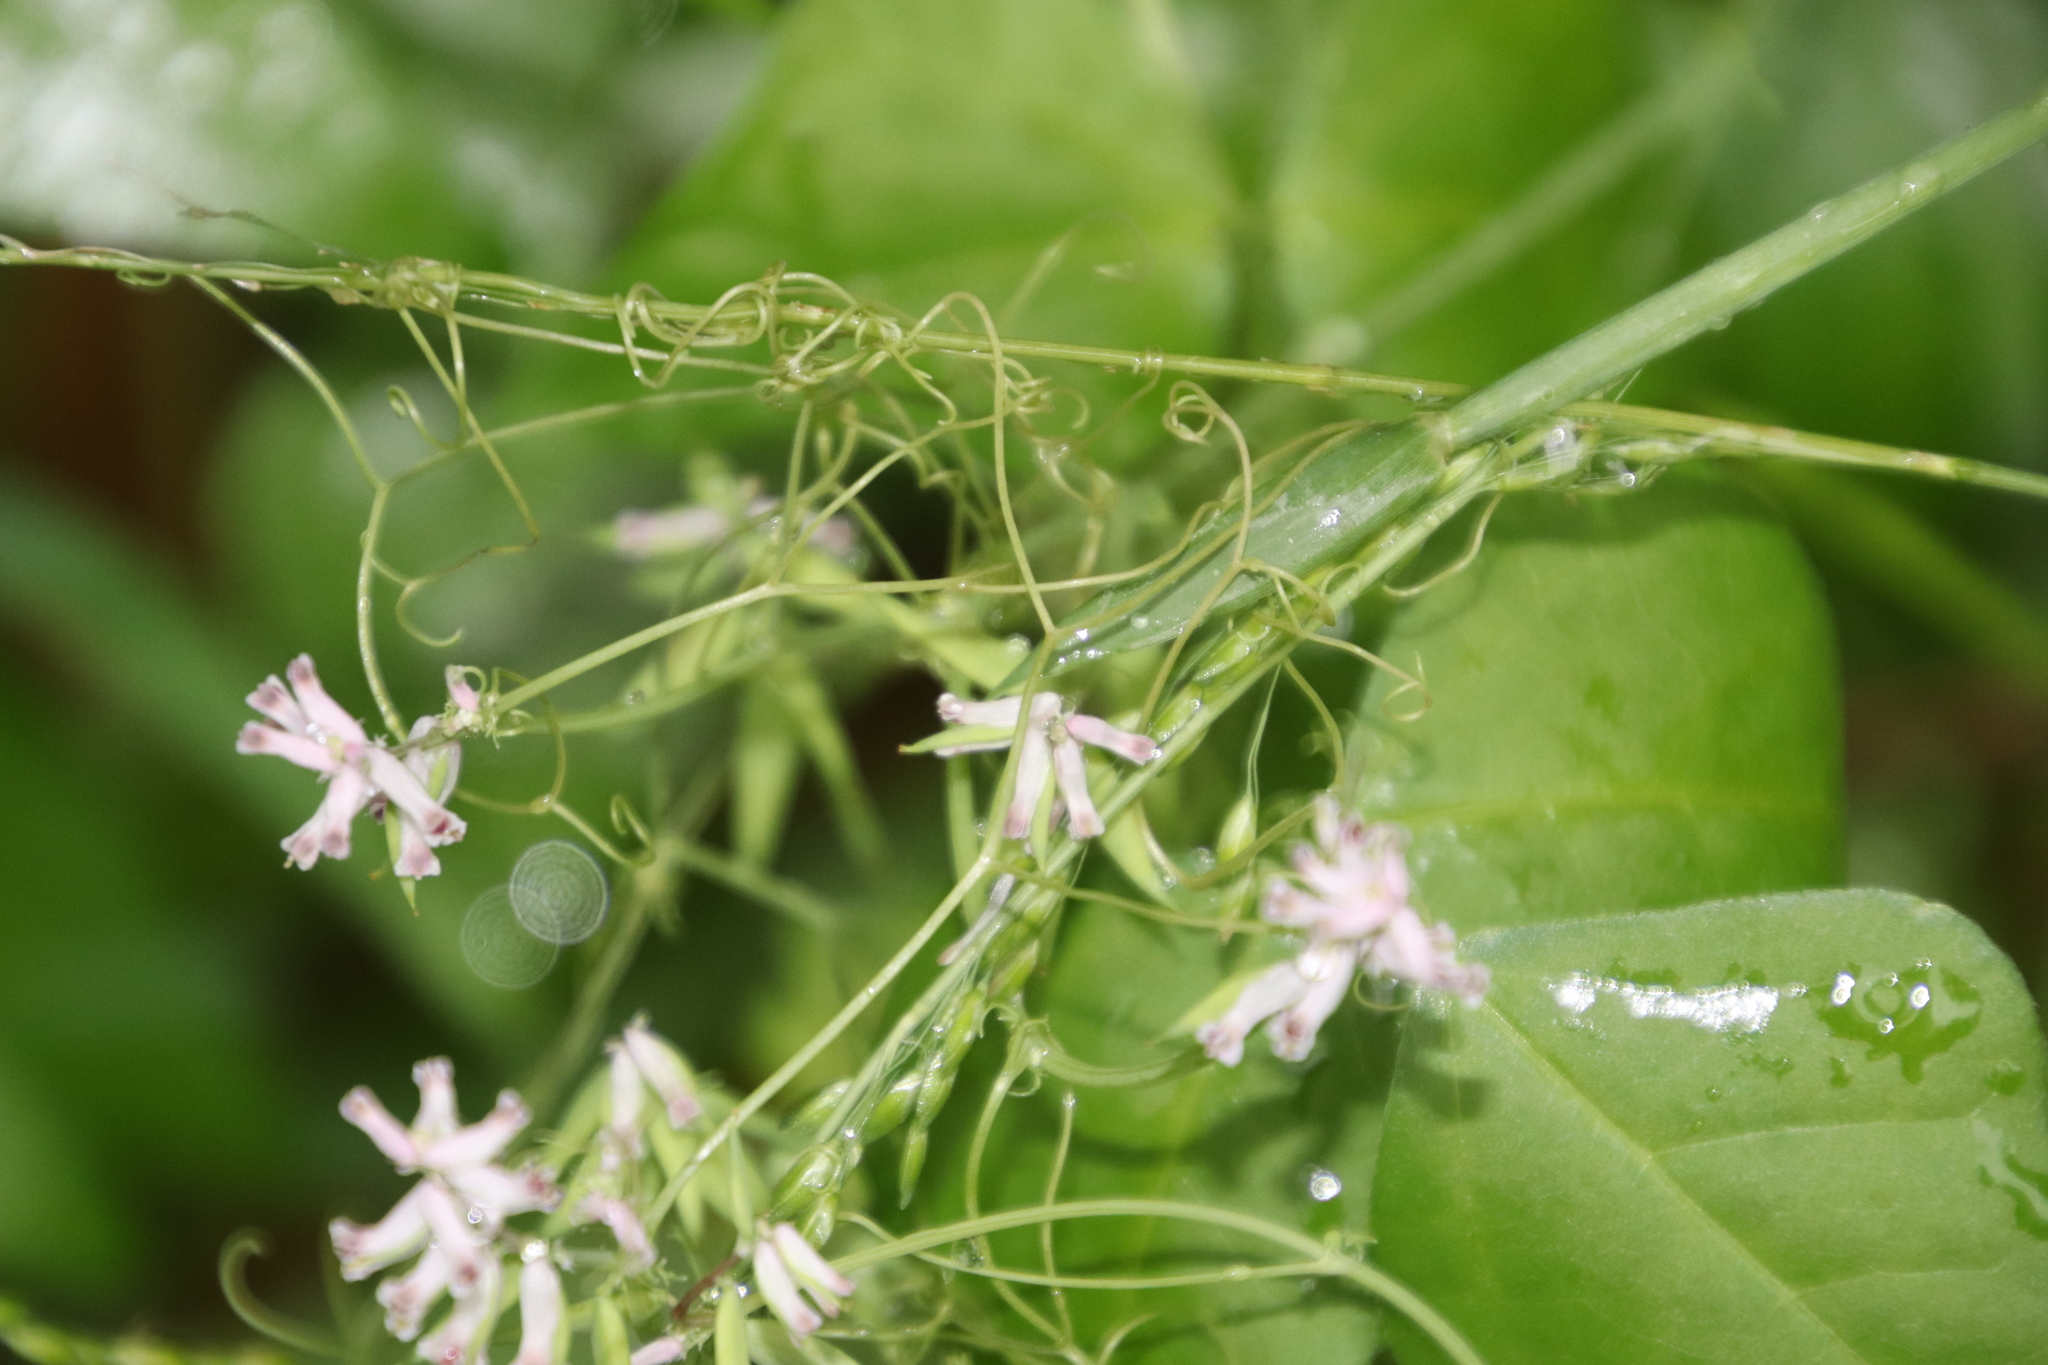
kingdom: Plantae
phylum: Tracheophyta
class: Magnoliopsida
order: Ranunculales
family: Papaveraceae
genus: Cysticapnos
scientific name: Cysticapnos cracca
